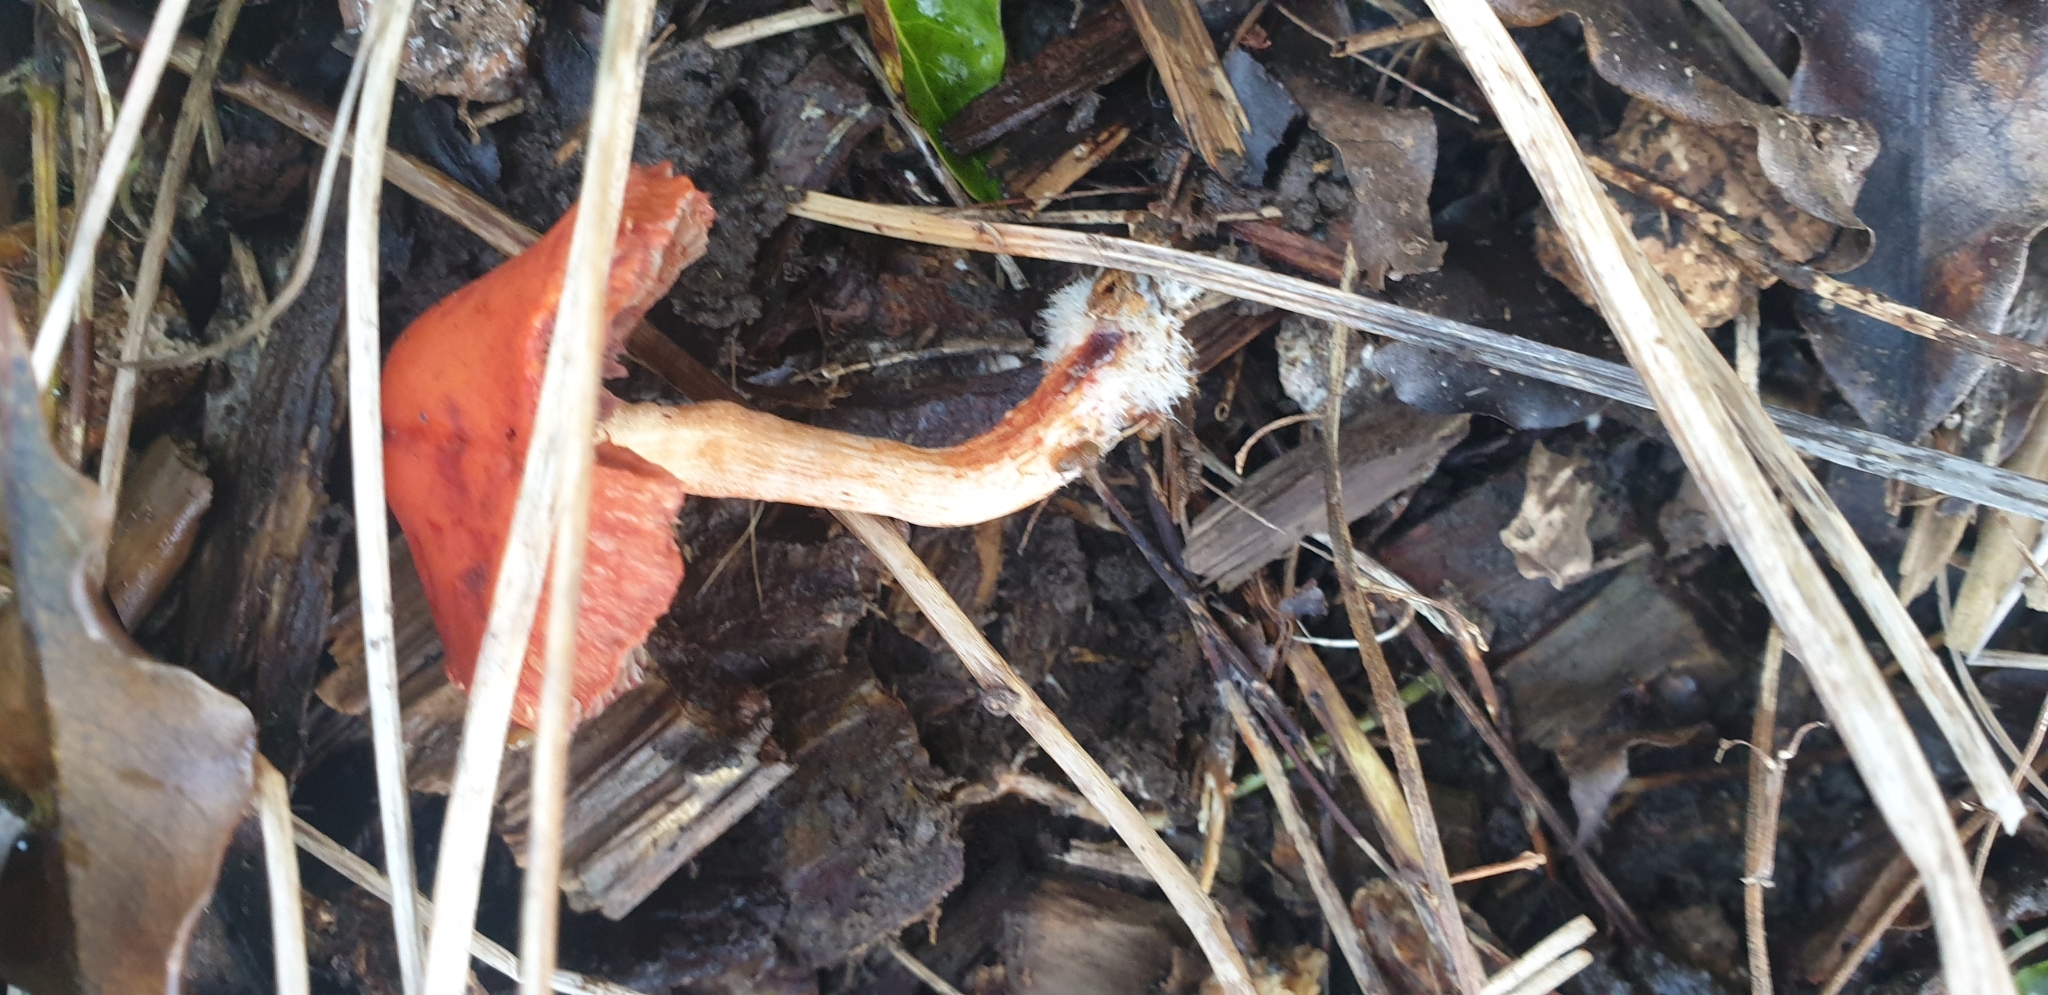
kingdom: Fungi
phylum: Basidiomycota
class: Agaricomycetes
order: Agaricales
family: Strophariaceae
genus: Leratiomyces
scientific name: Leratiomyces ceres
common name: Redlead roundhead
